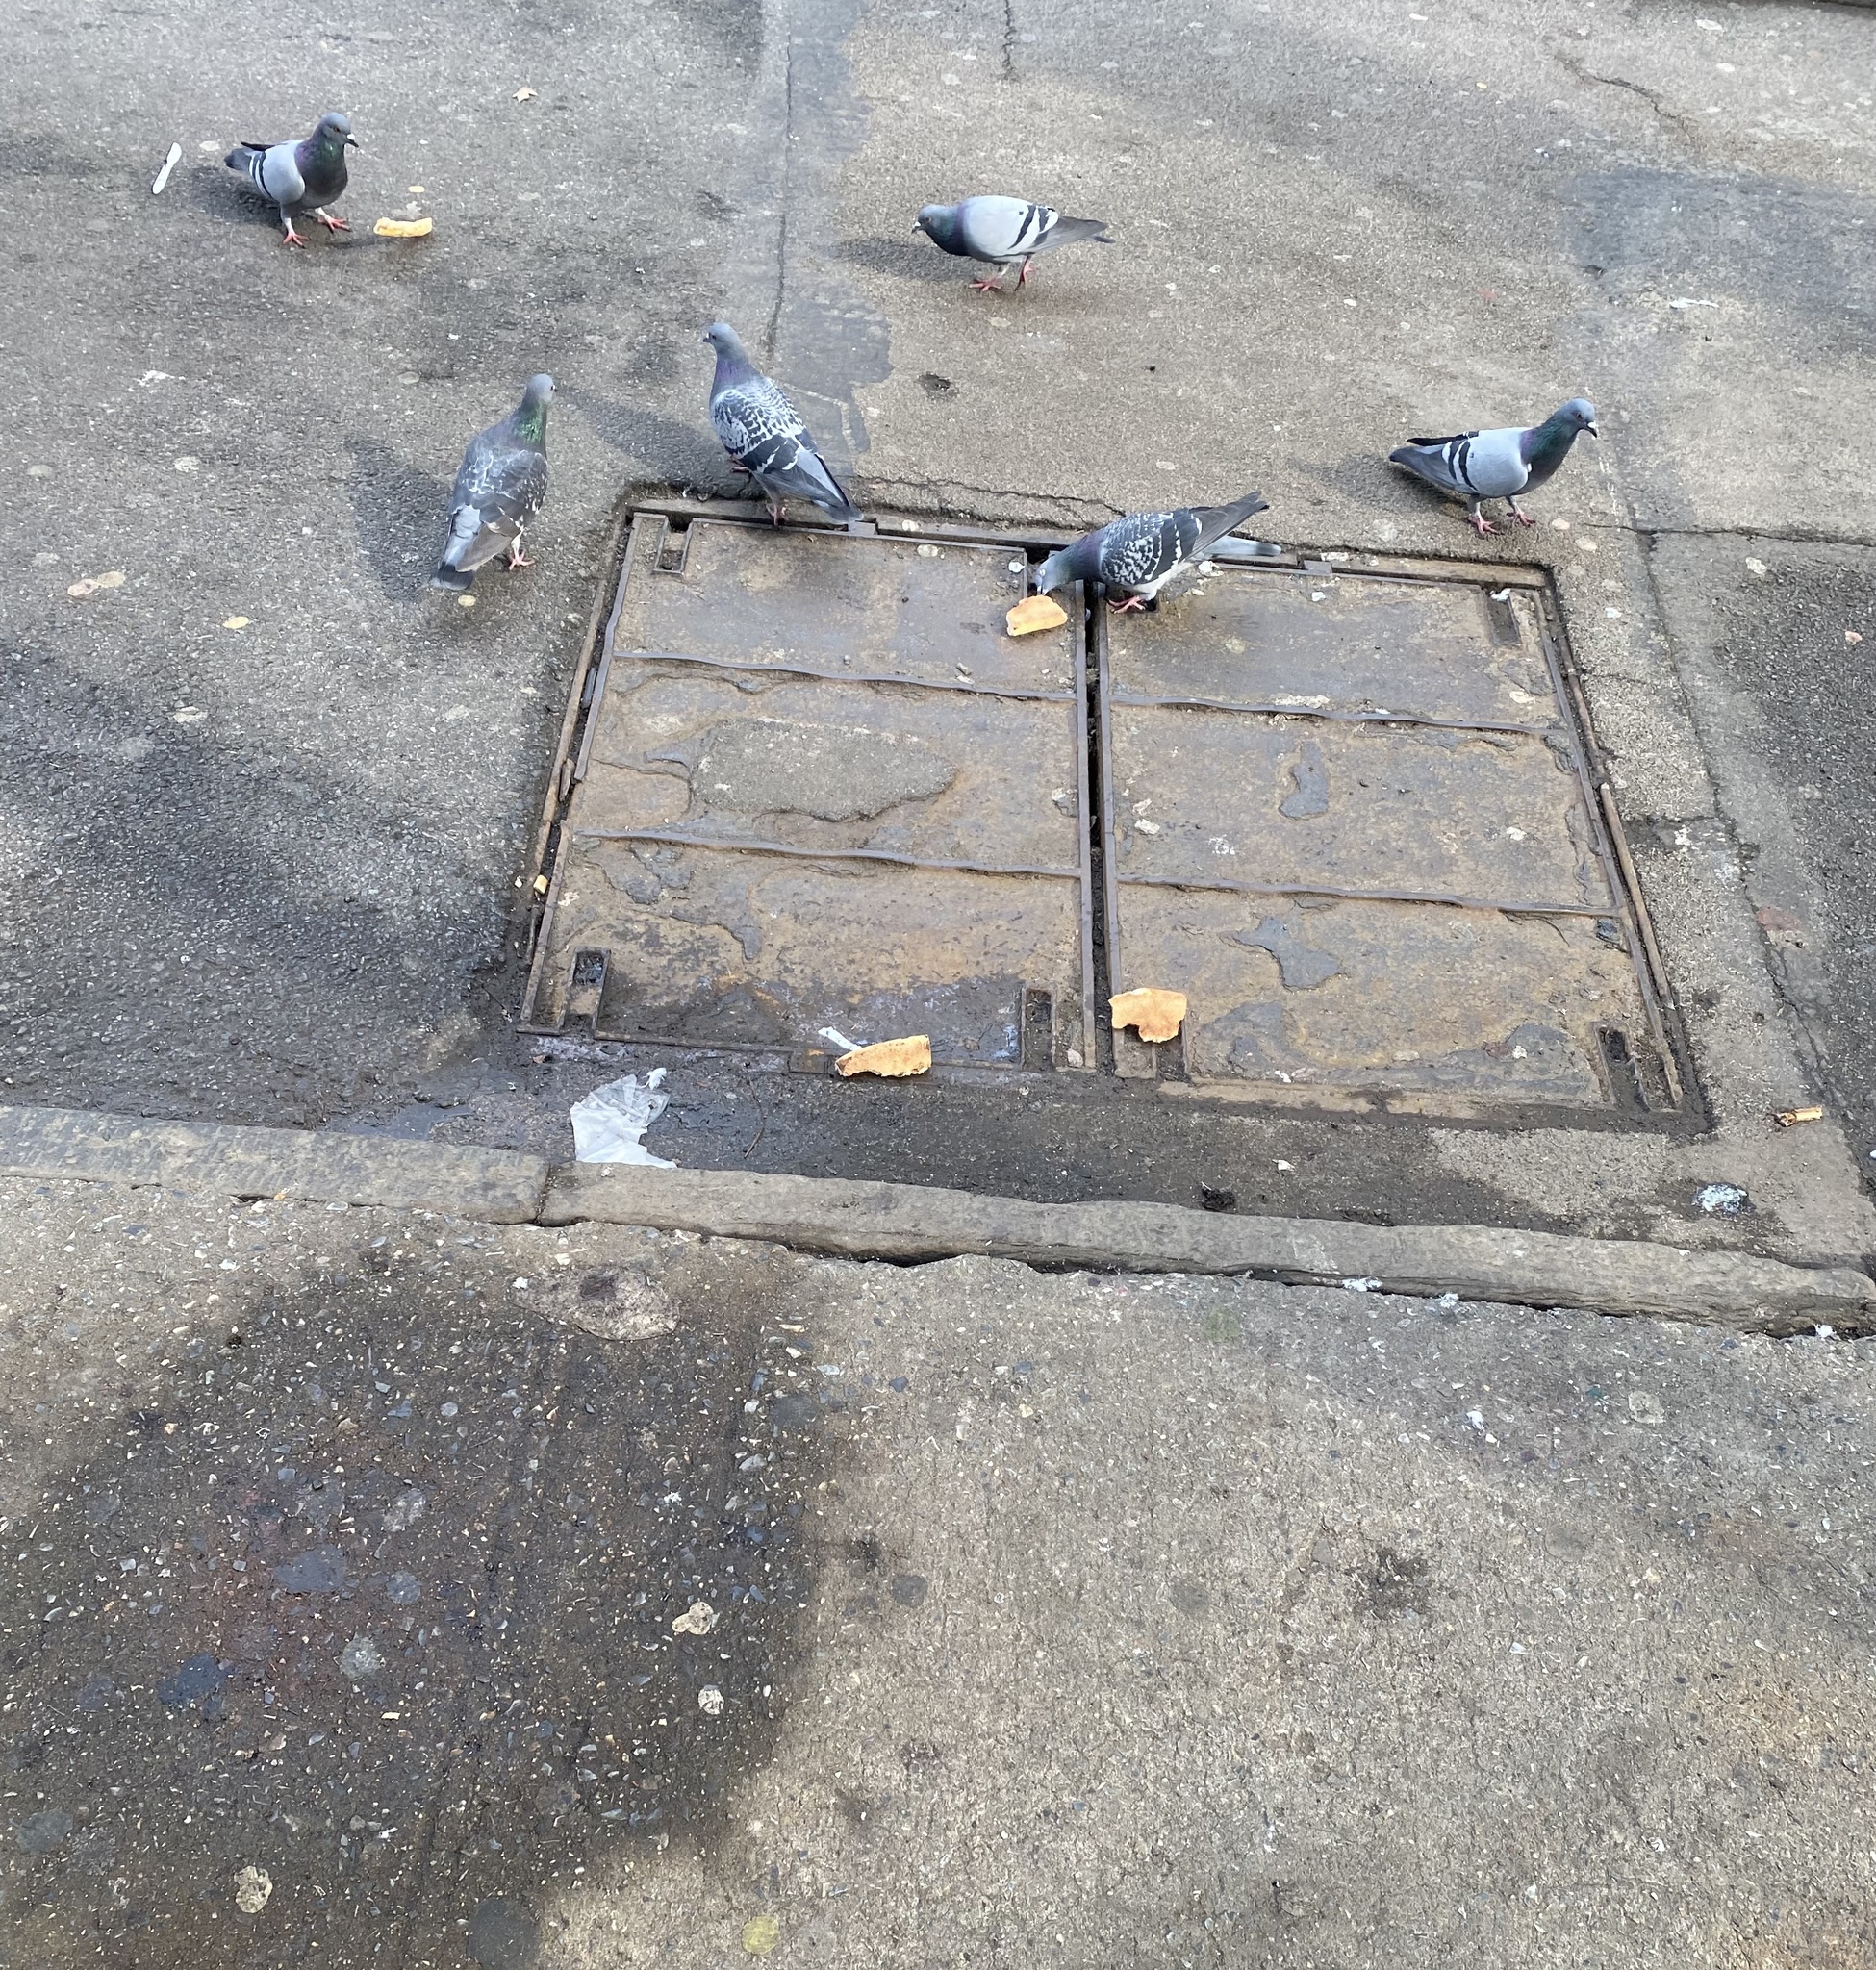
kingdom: Animalia
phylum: Chordata
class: Aves
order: Columbiformes
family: Columbidae
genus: Columba
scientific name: Columba livia
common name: Rock pigeon
